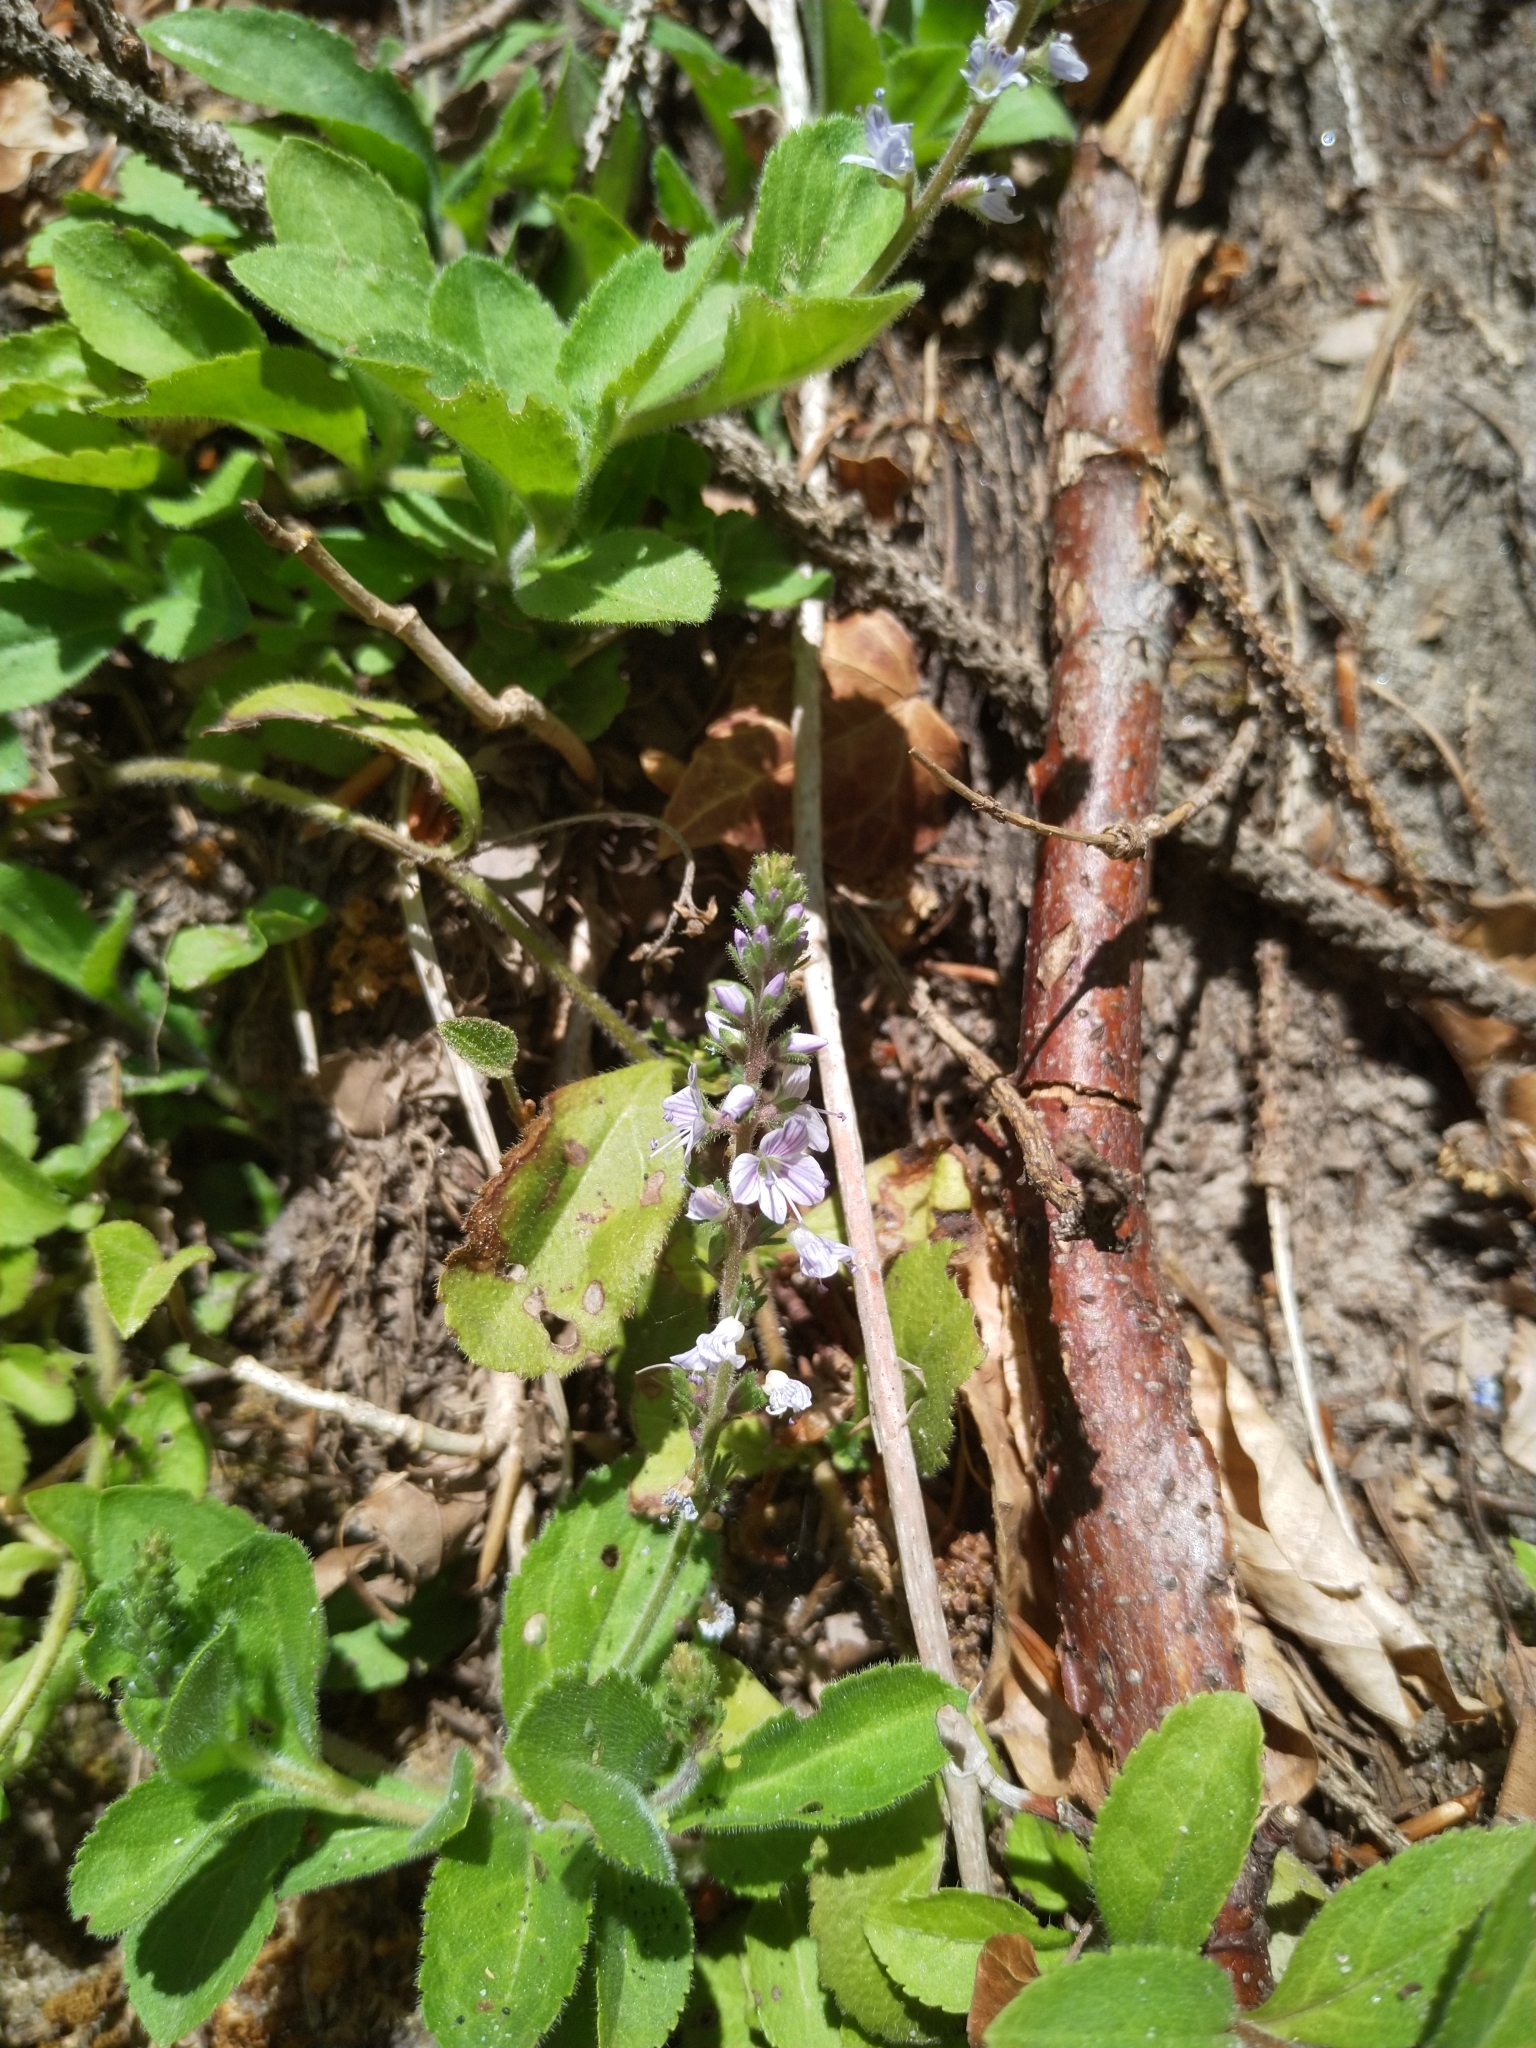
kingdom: Plantae
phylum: Tracheophyta
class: Magnoliopsida
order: Lamiales
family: Plantaginaceae
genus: Veronica
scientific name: Veronica officinalis
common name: Common speedwell
